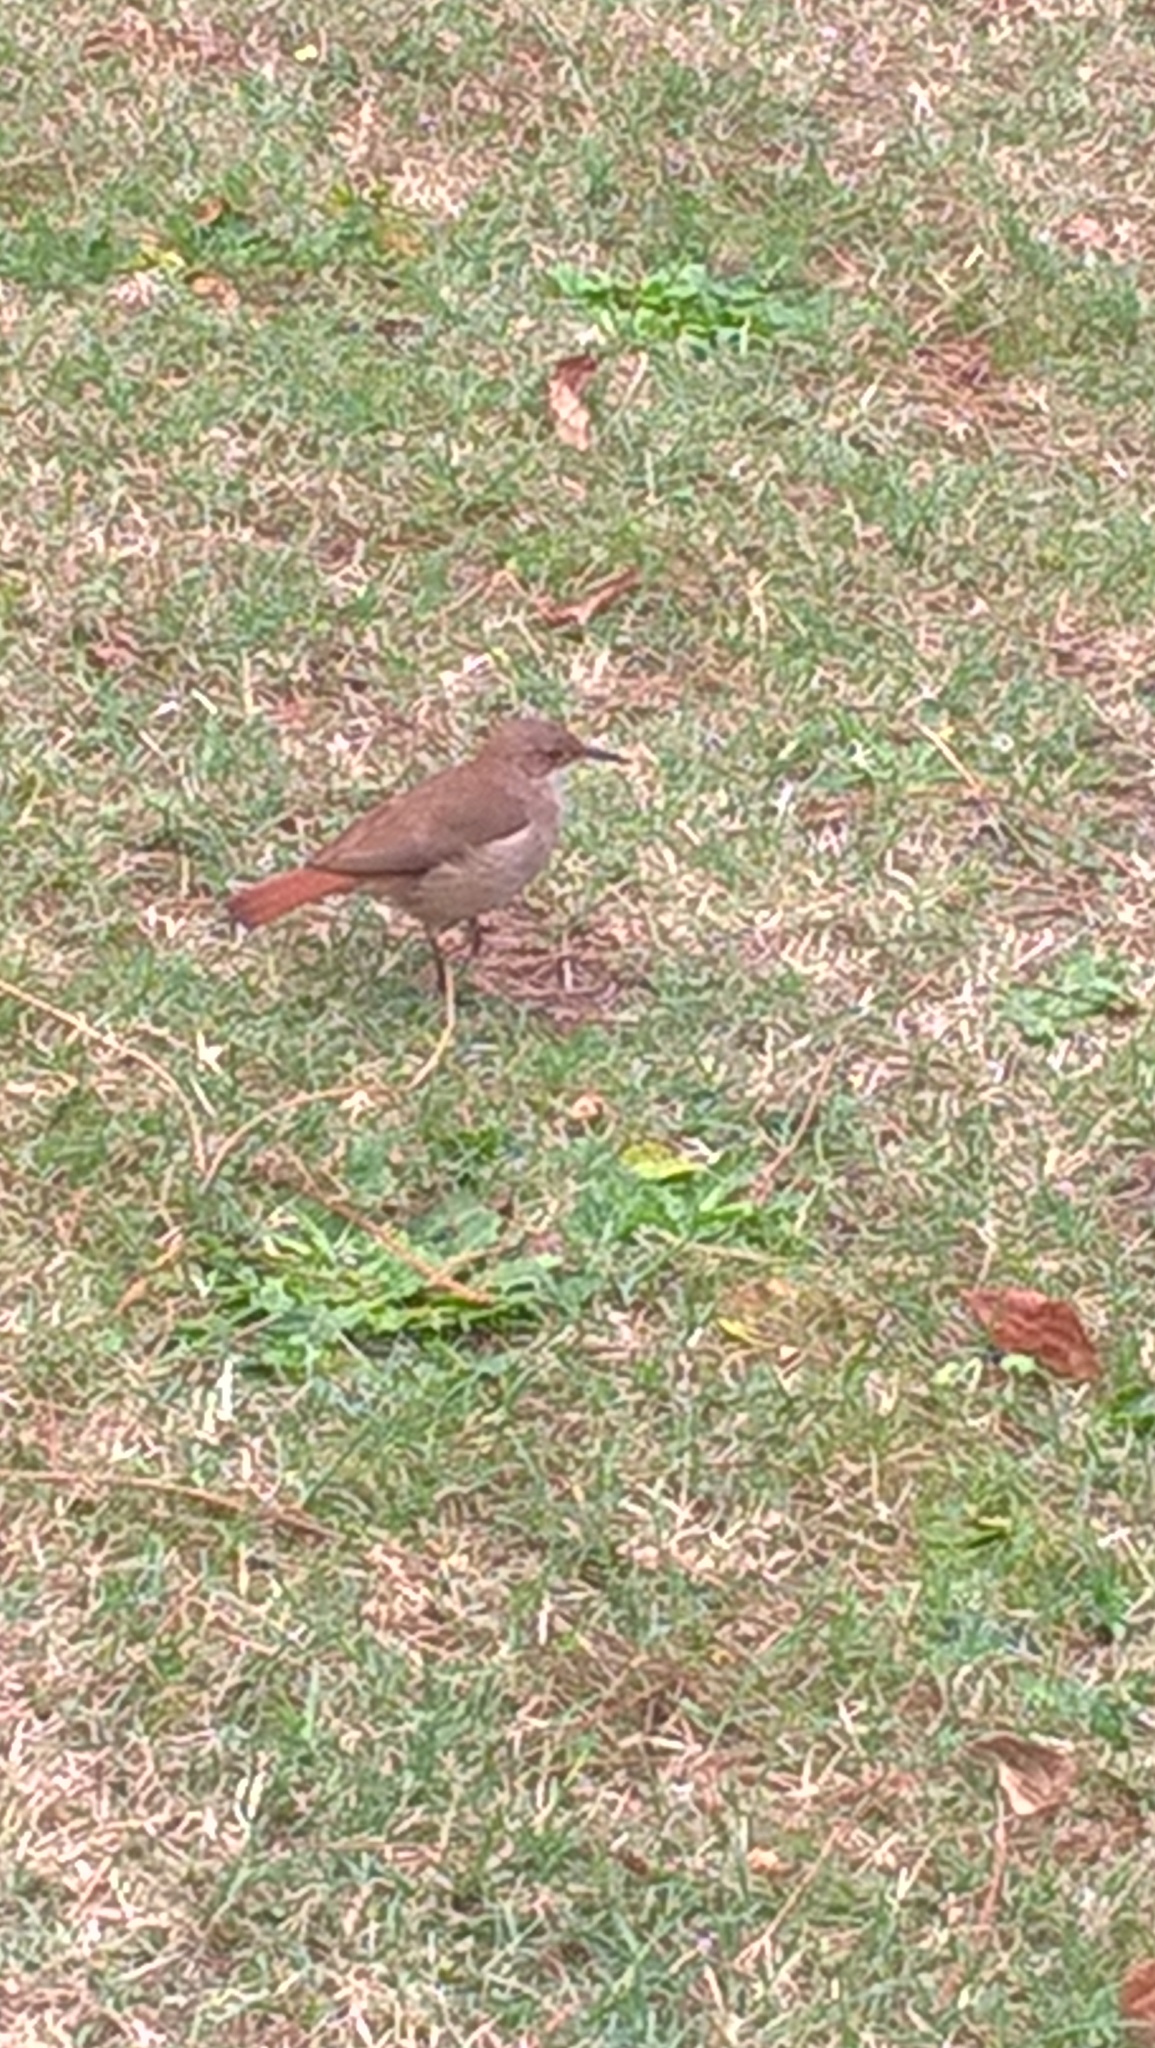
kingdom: Animalia
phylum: Chordata
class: Aves
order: Passeriformes
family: Furnariidae
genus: Furnarius
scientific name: Furnarius rufus
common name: Rufous hornero
